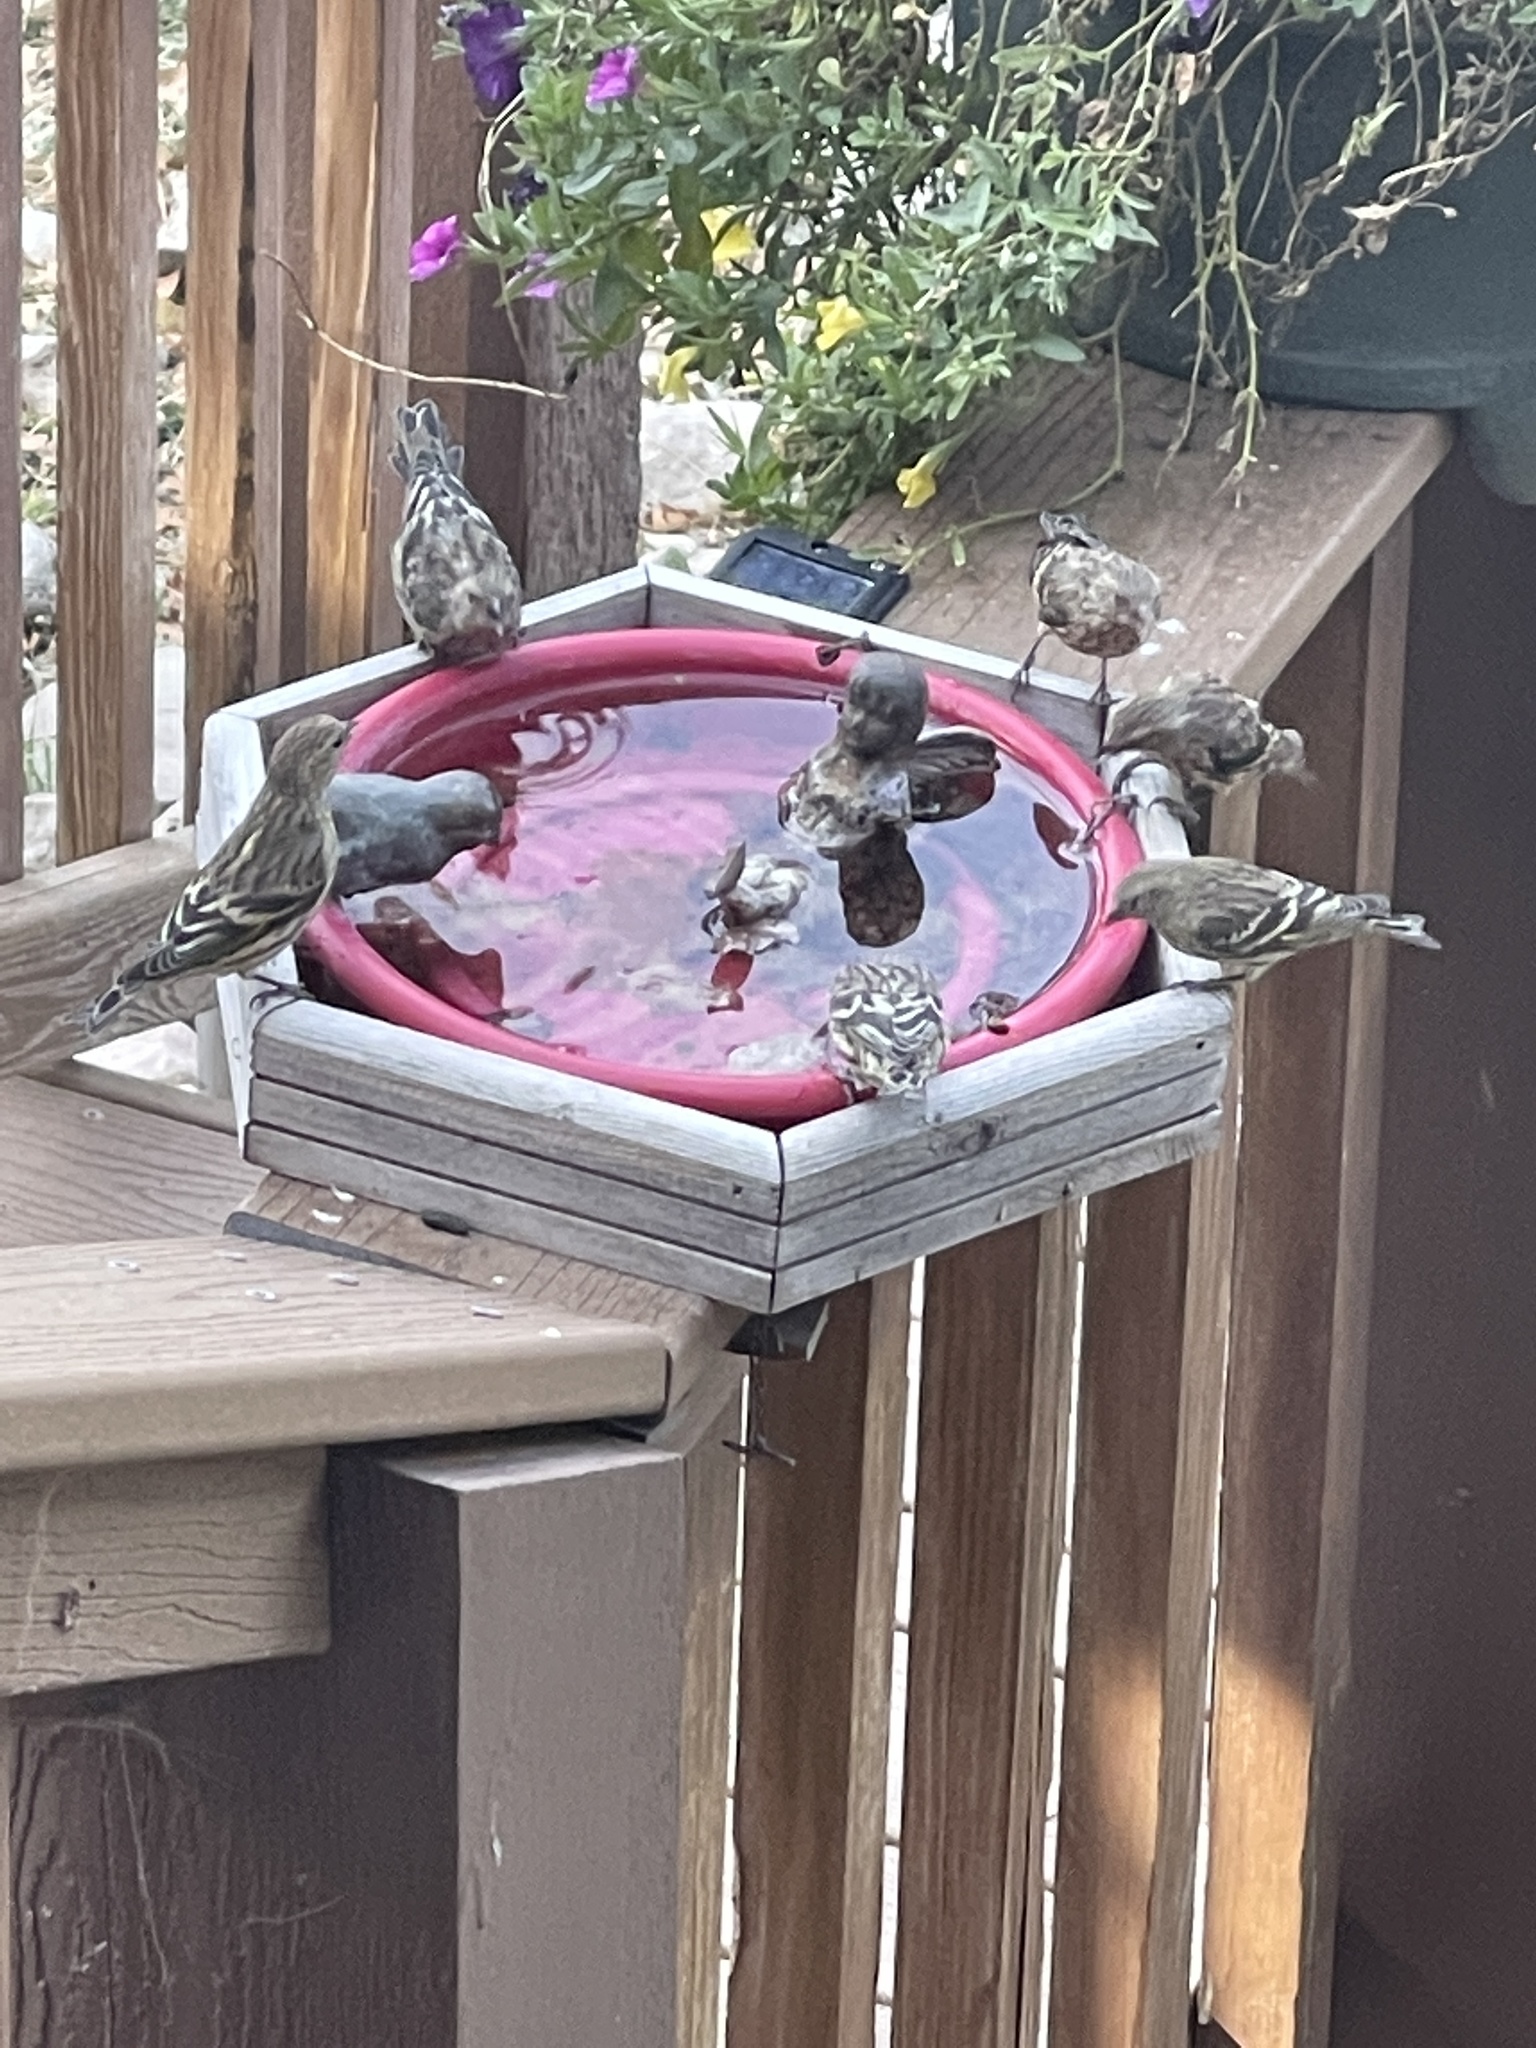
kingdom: Animalia
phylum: Chordata
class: Aves
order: Passeriformes
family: Fringillidae
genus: Spinus
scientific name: Spinus pinus
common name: Pine siskin
